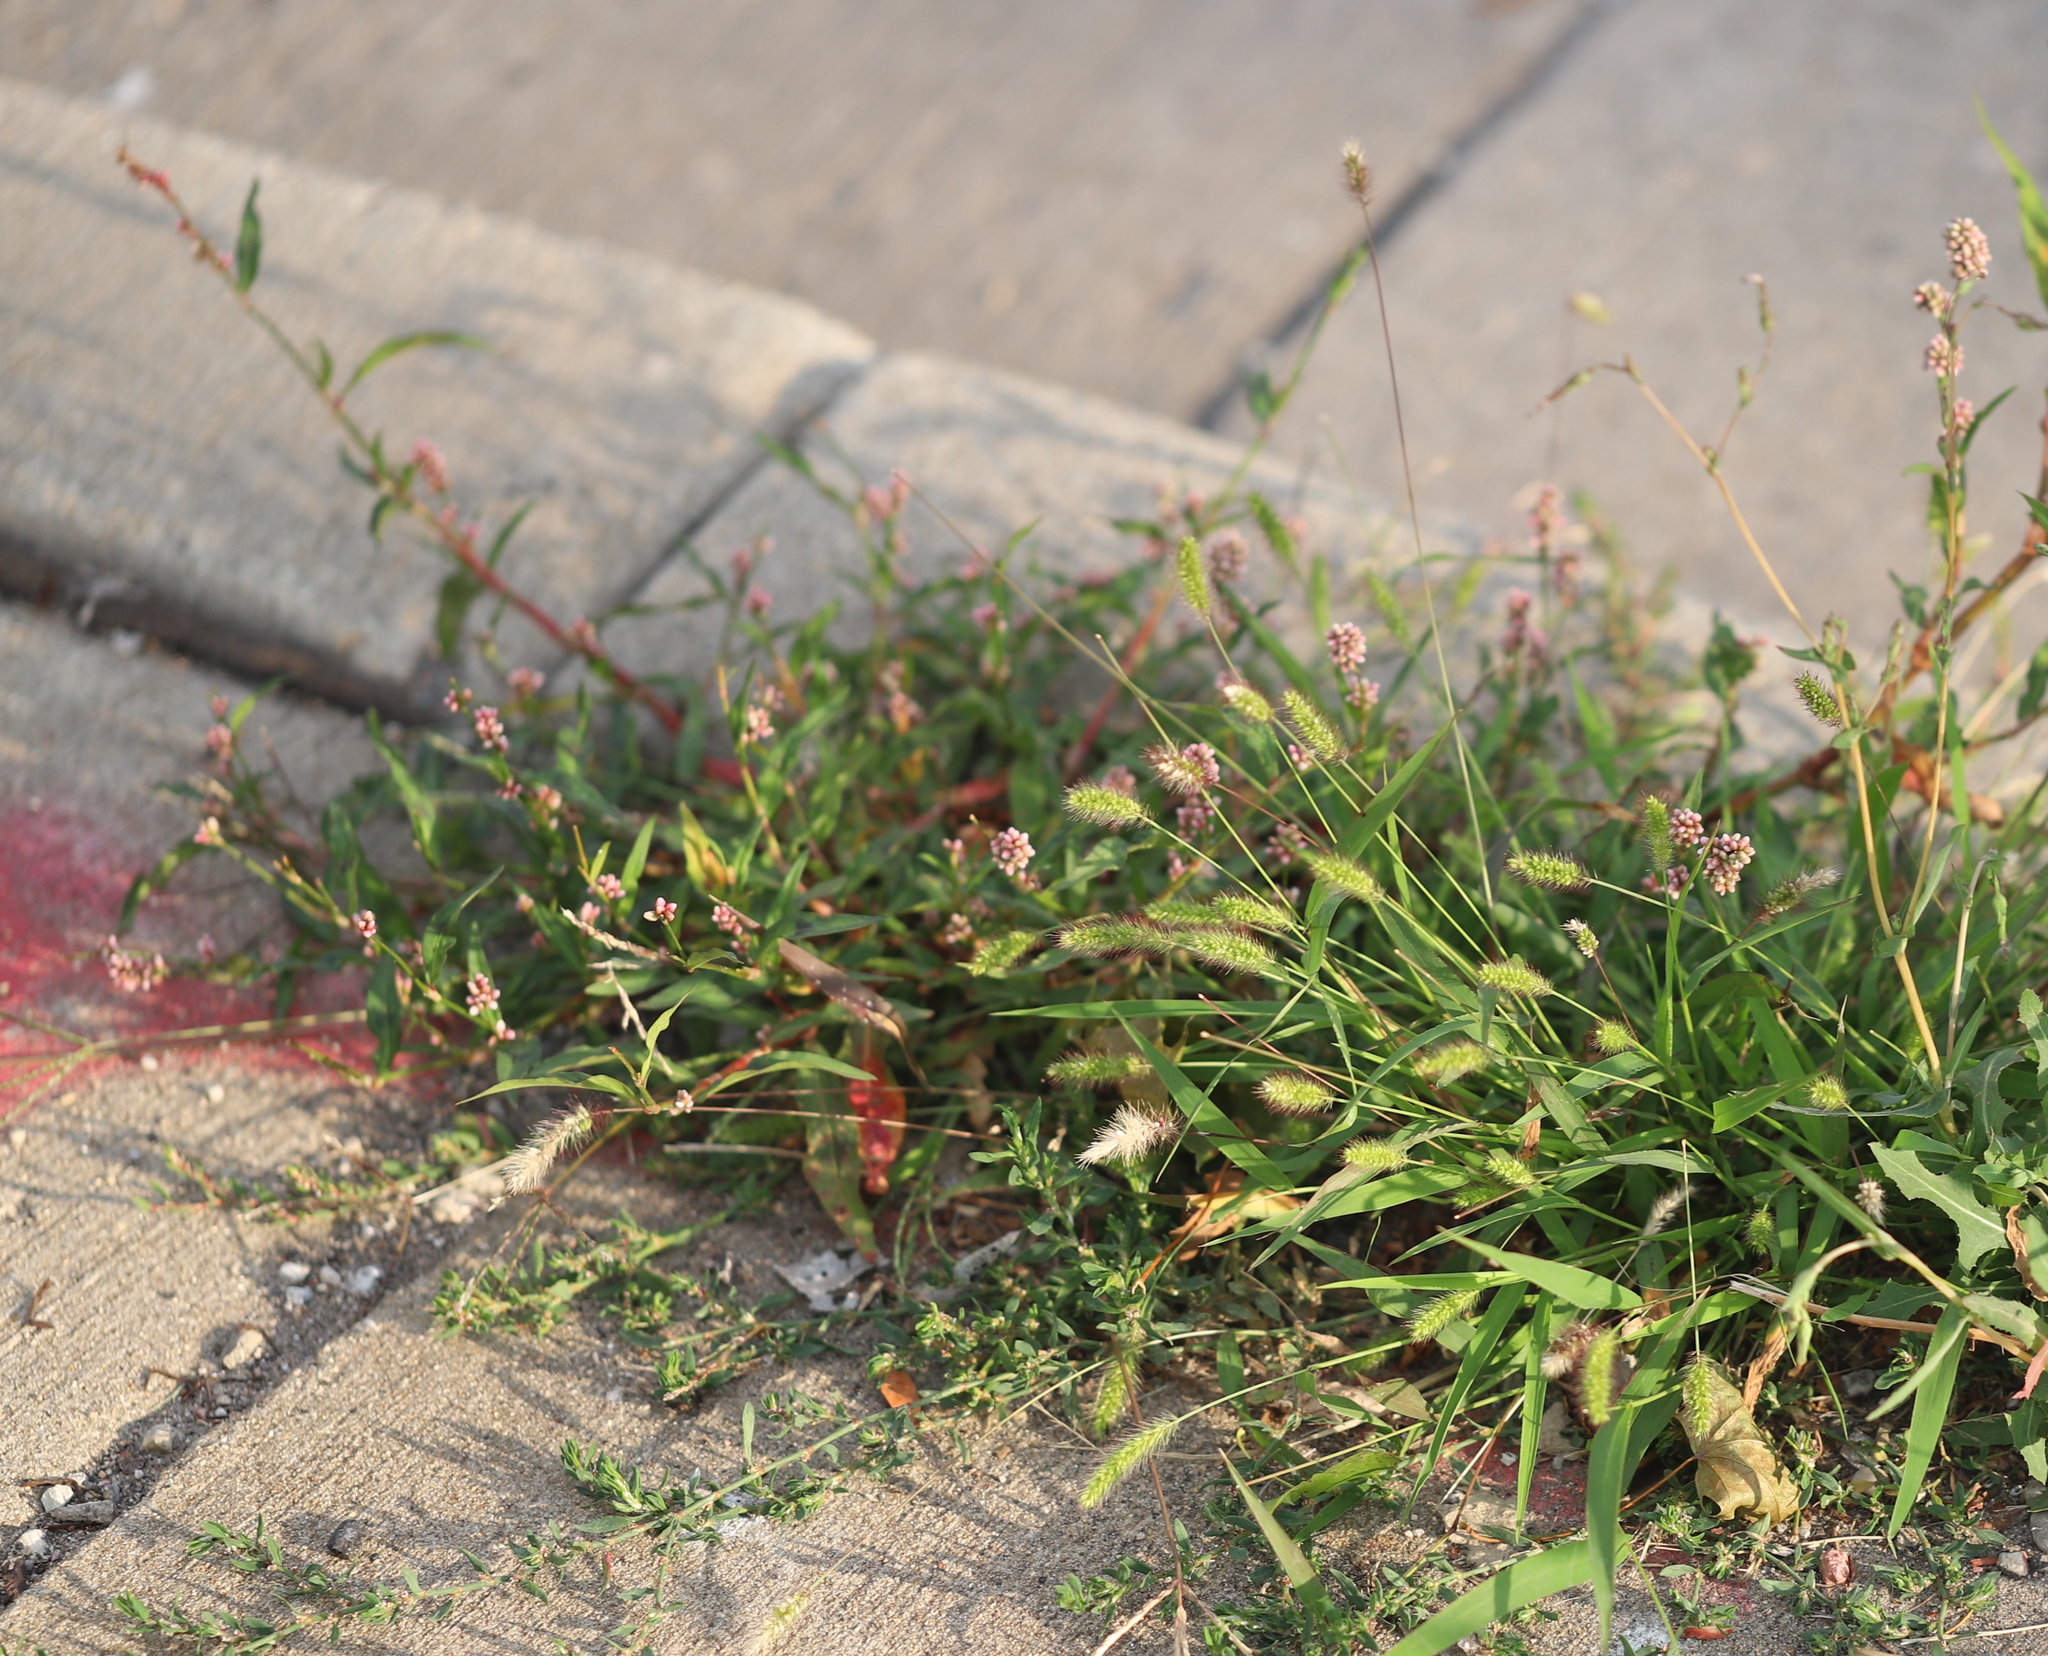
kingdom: Plantae
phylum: Tracheophyta
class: Magnoliopsida
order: Caryophyllales
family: Polygonaceae
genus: Persicaria
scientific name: Persicaria maculosa
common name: Redshank
